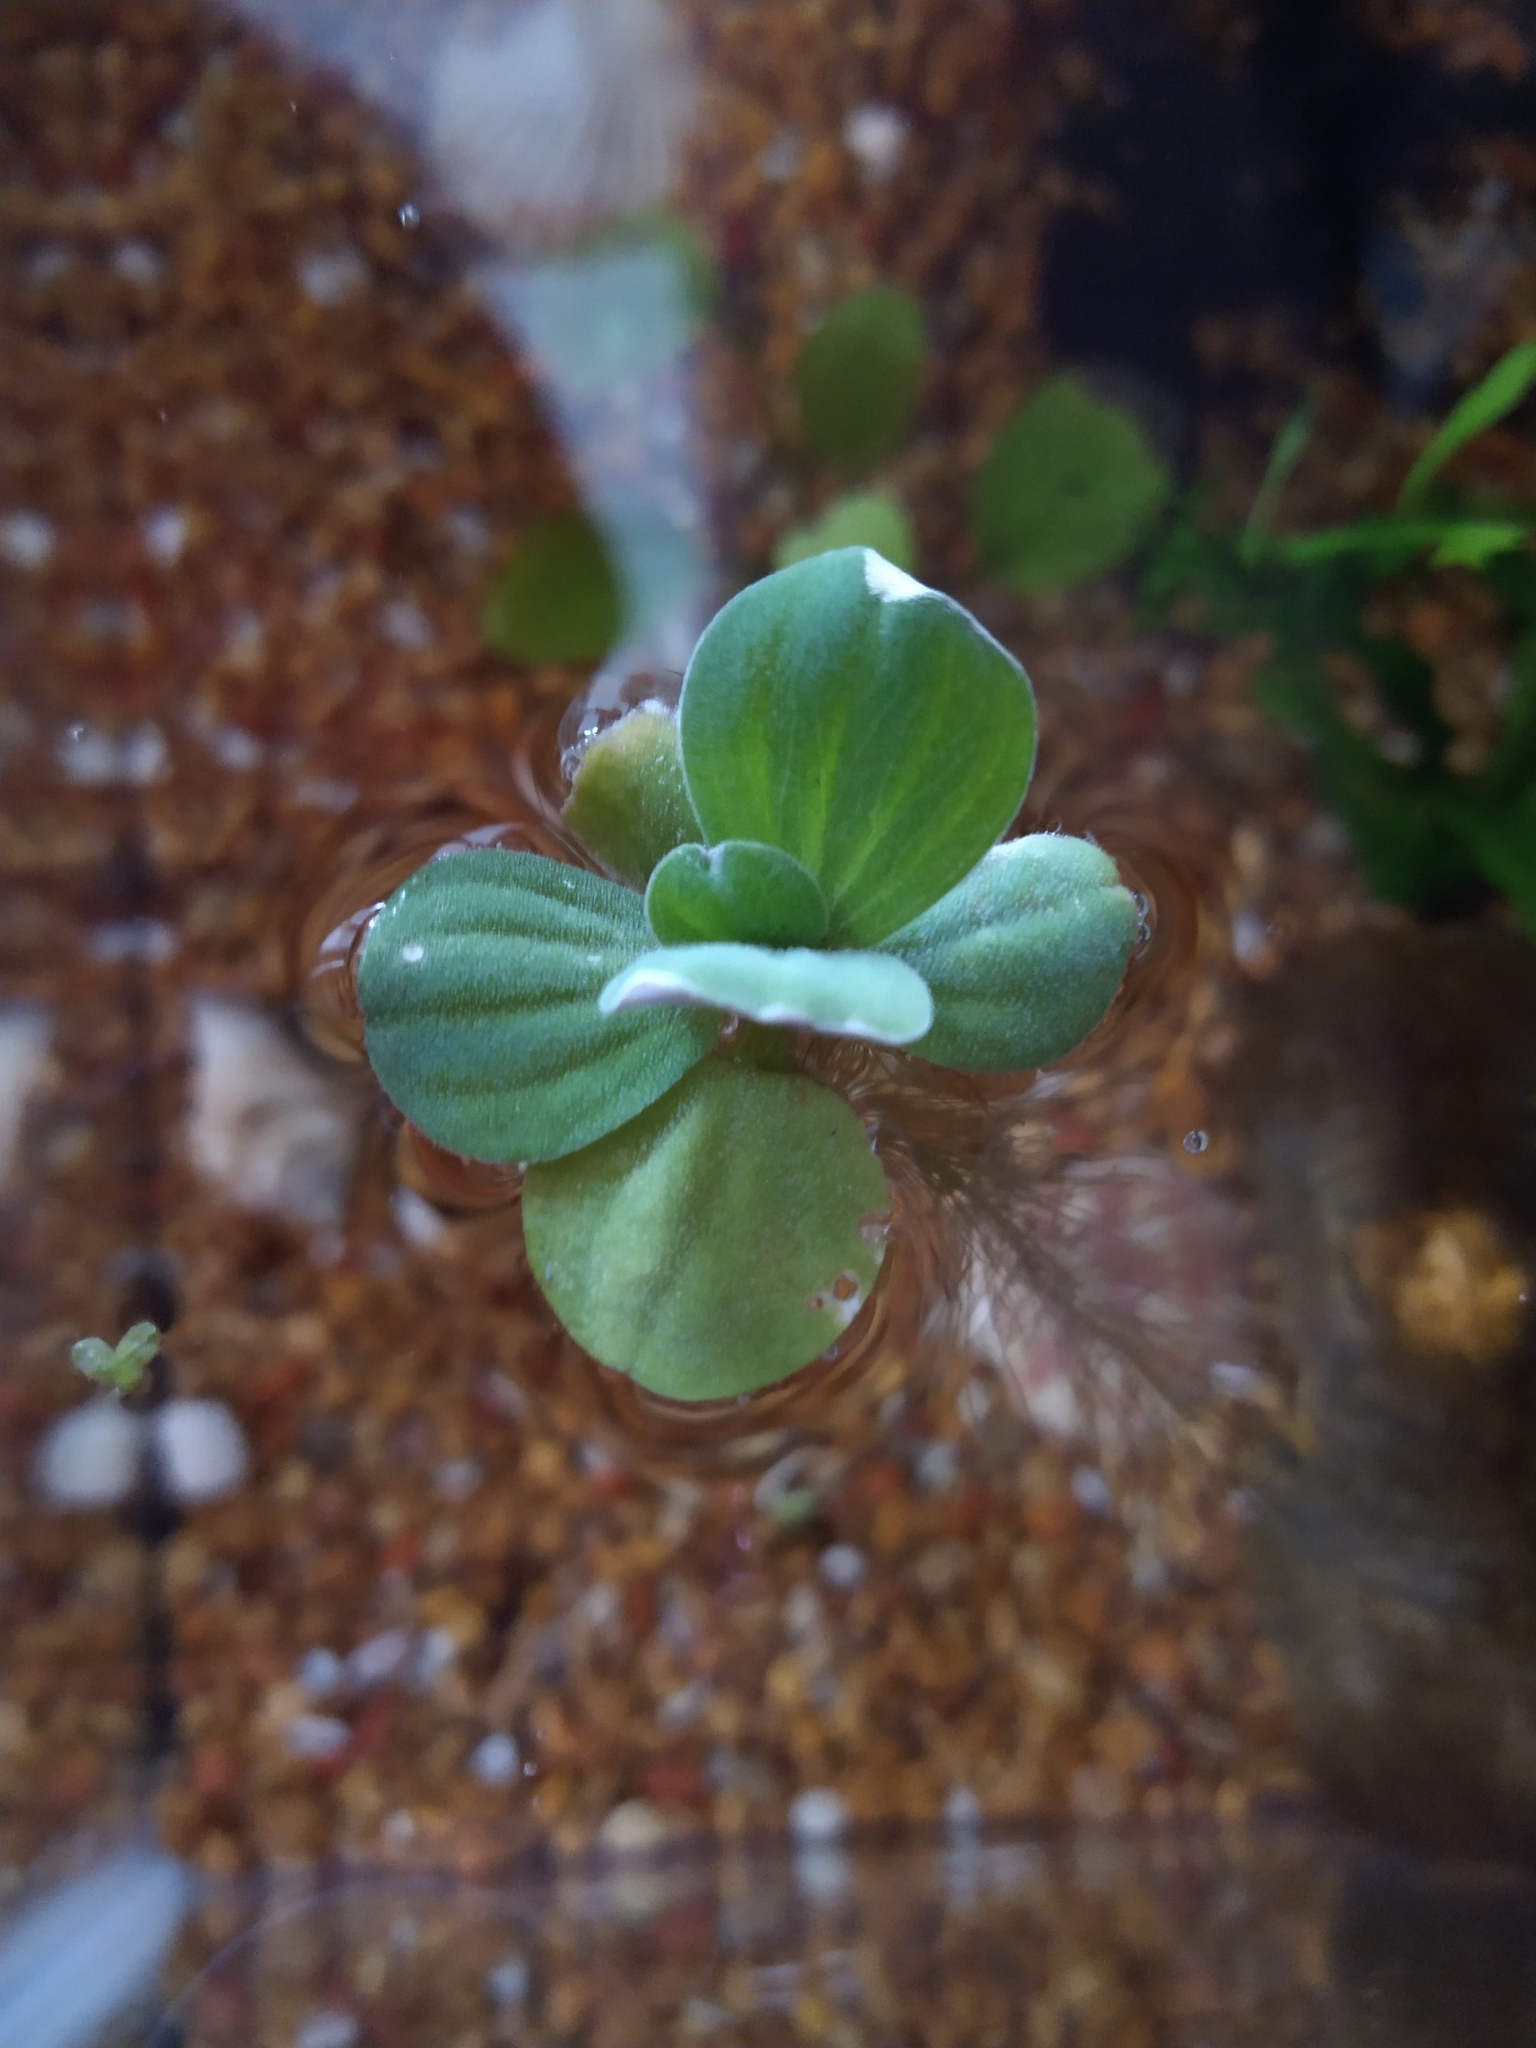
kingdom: Plantae
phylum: Tracheophyta
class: Liliopsida
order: Alismatales
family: Araceae
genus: Pistia
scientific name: Pistia stratiotes
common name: Water lettuce
